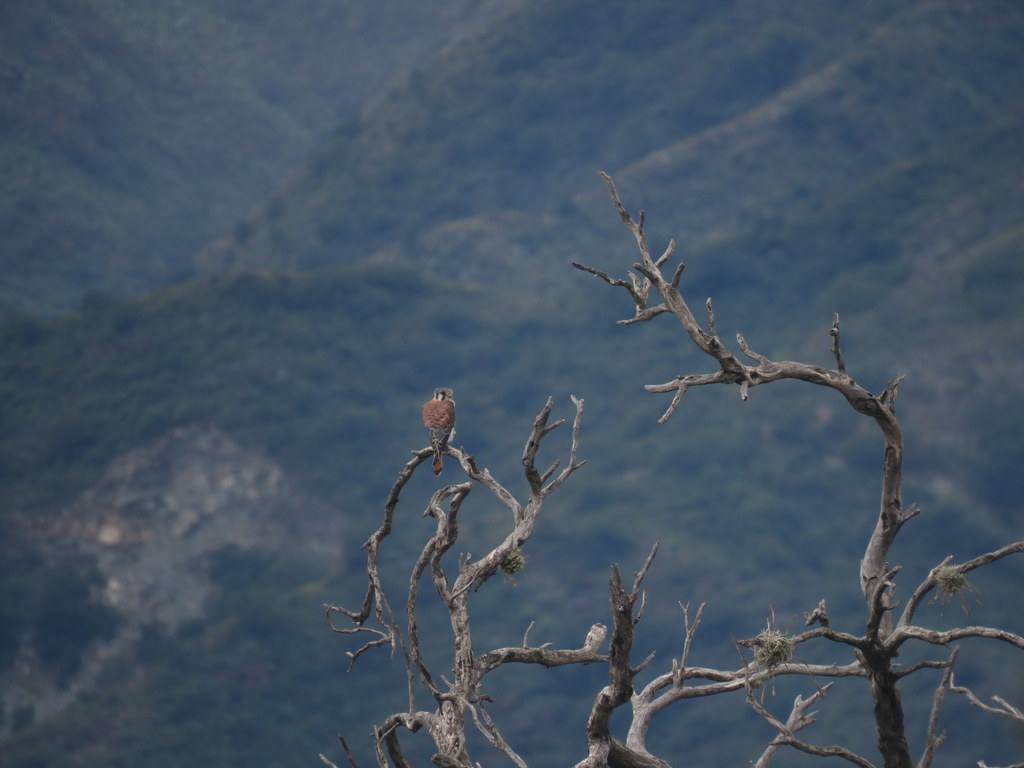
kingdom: Animalia
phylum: Chordata
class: Aves
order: Falconiformes
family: Falconidae
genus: Falco
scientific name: Falco sparverius
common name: American kestrel
